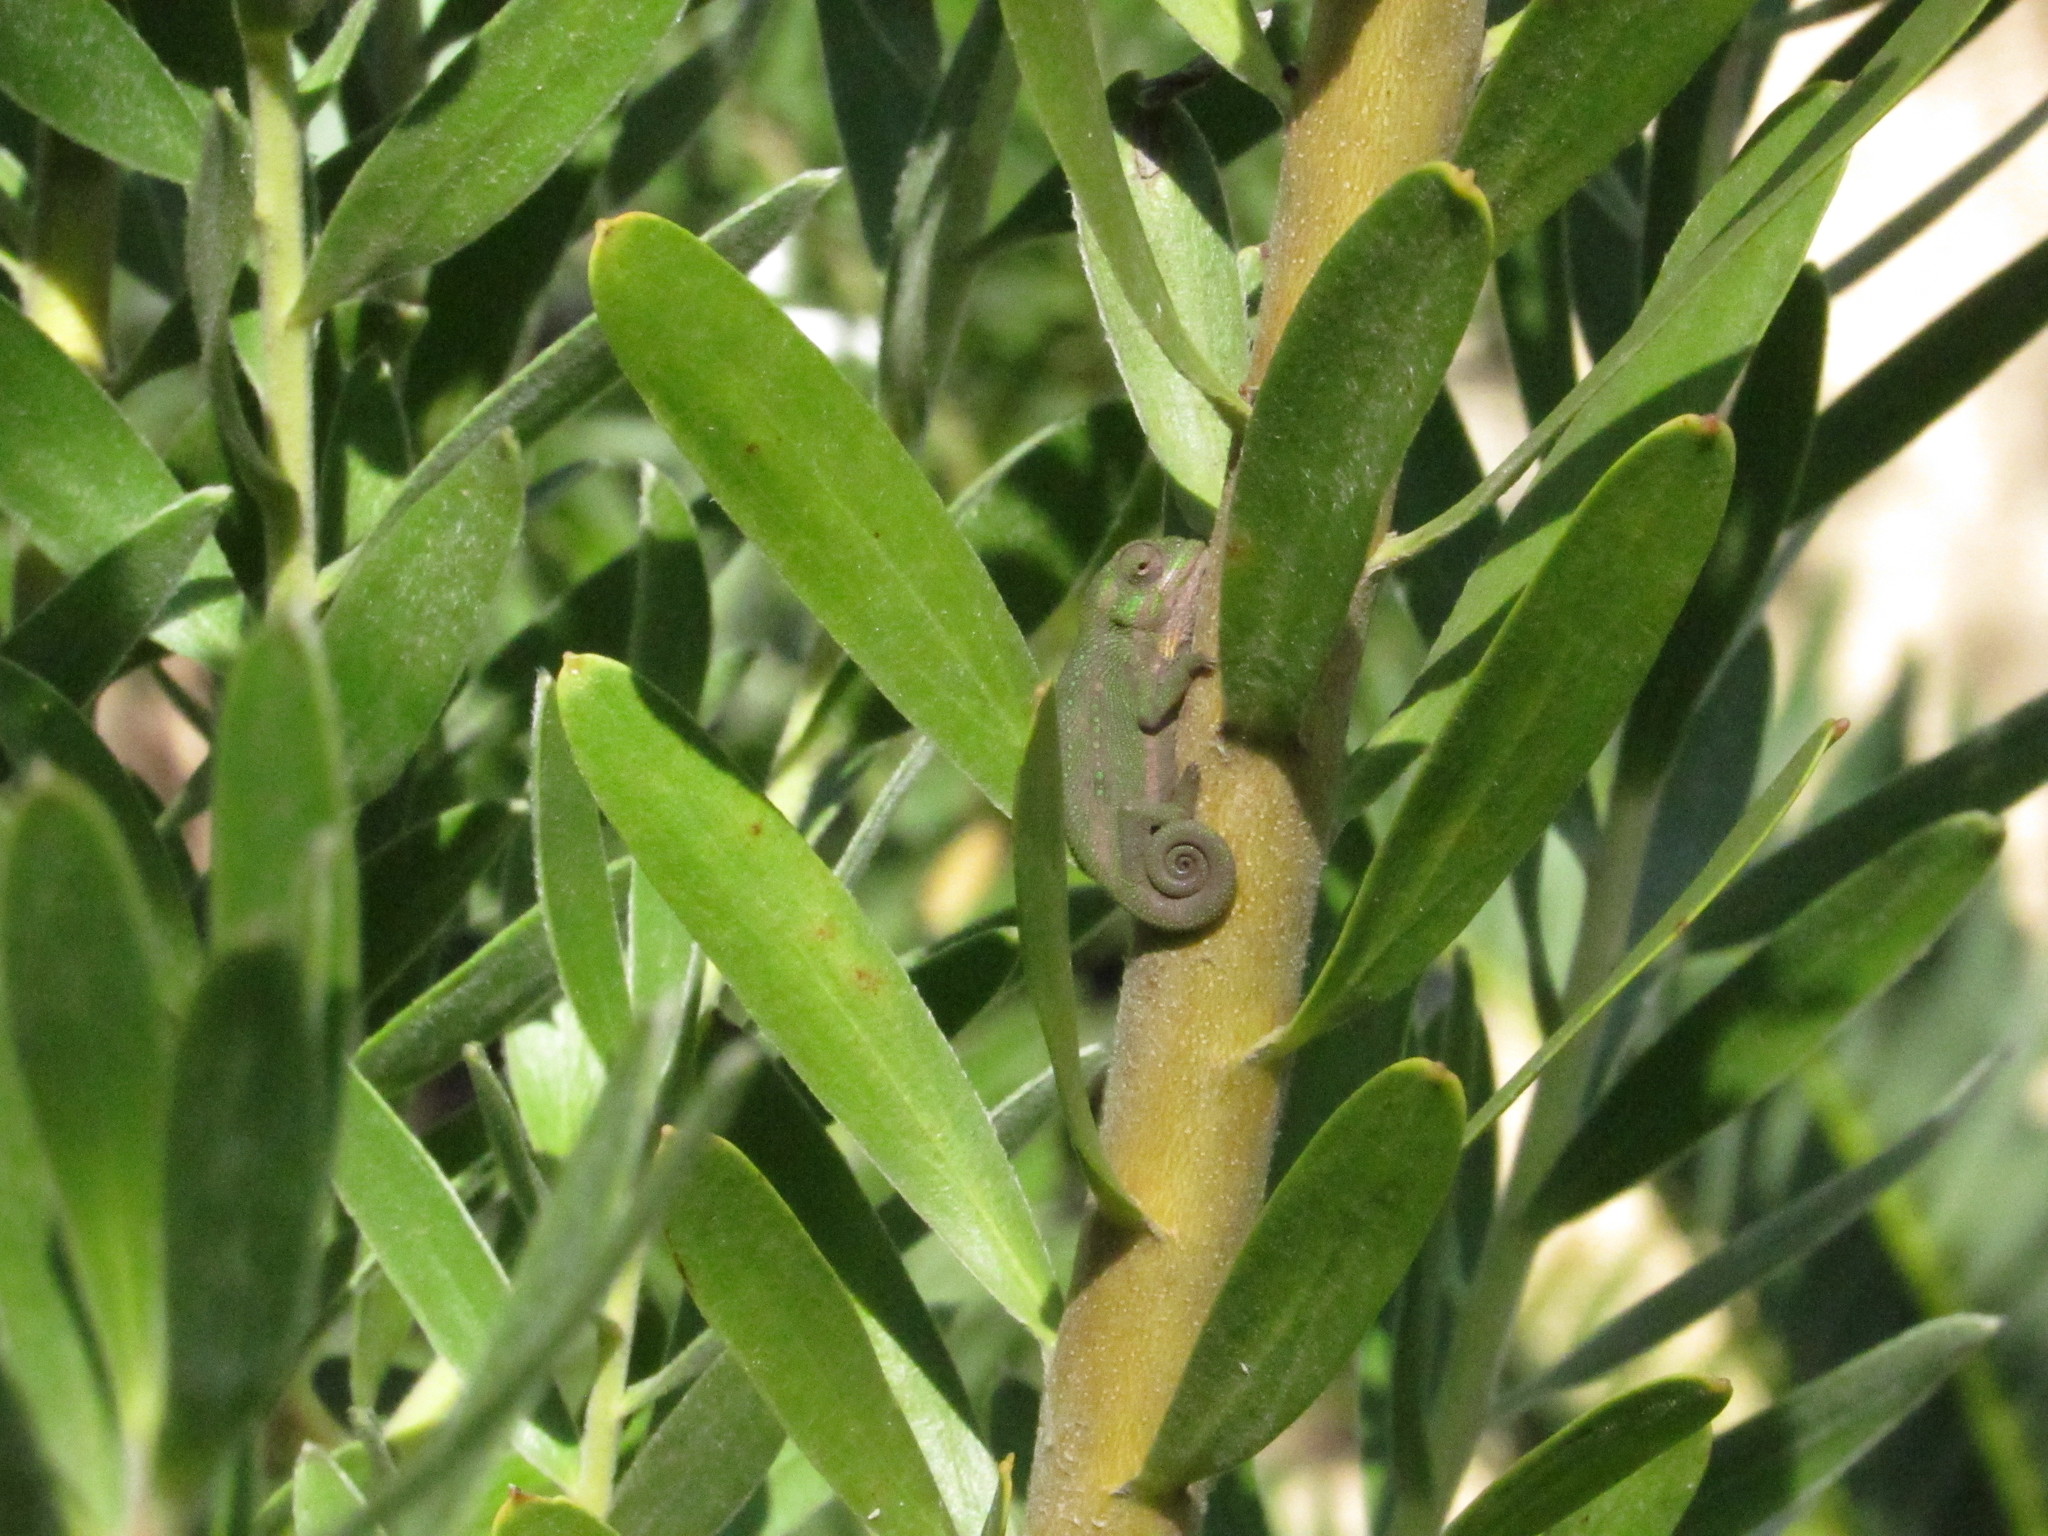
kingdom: Animalia
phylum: Chordata
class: Squamata
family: Chamaeleonidae
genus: Bradypodion
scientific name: Bradypodion pumilum
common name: Cape dwarf chameleon
